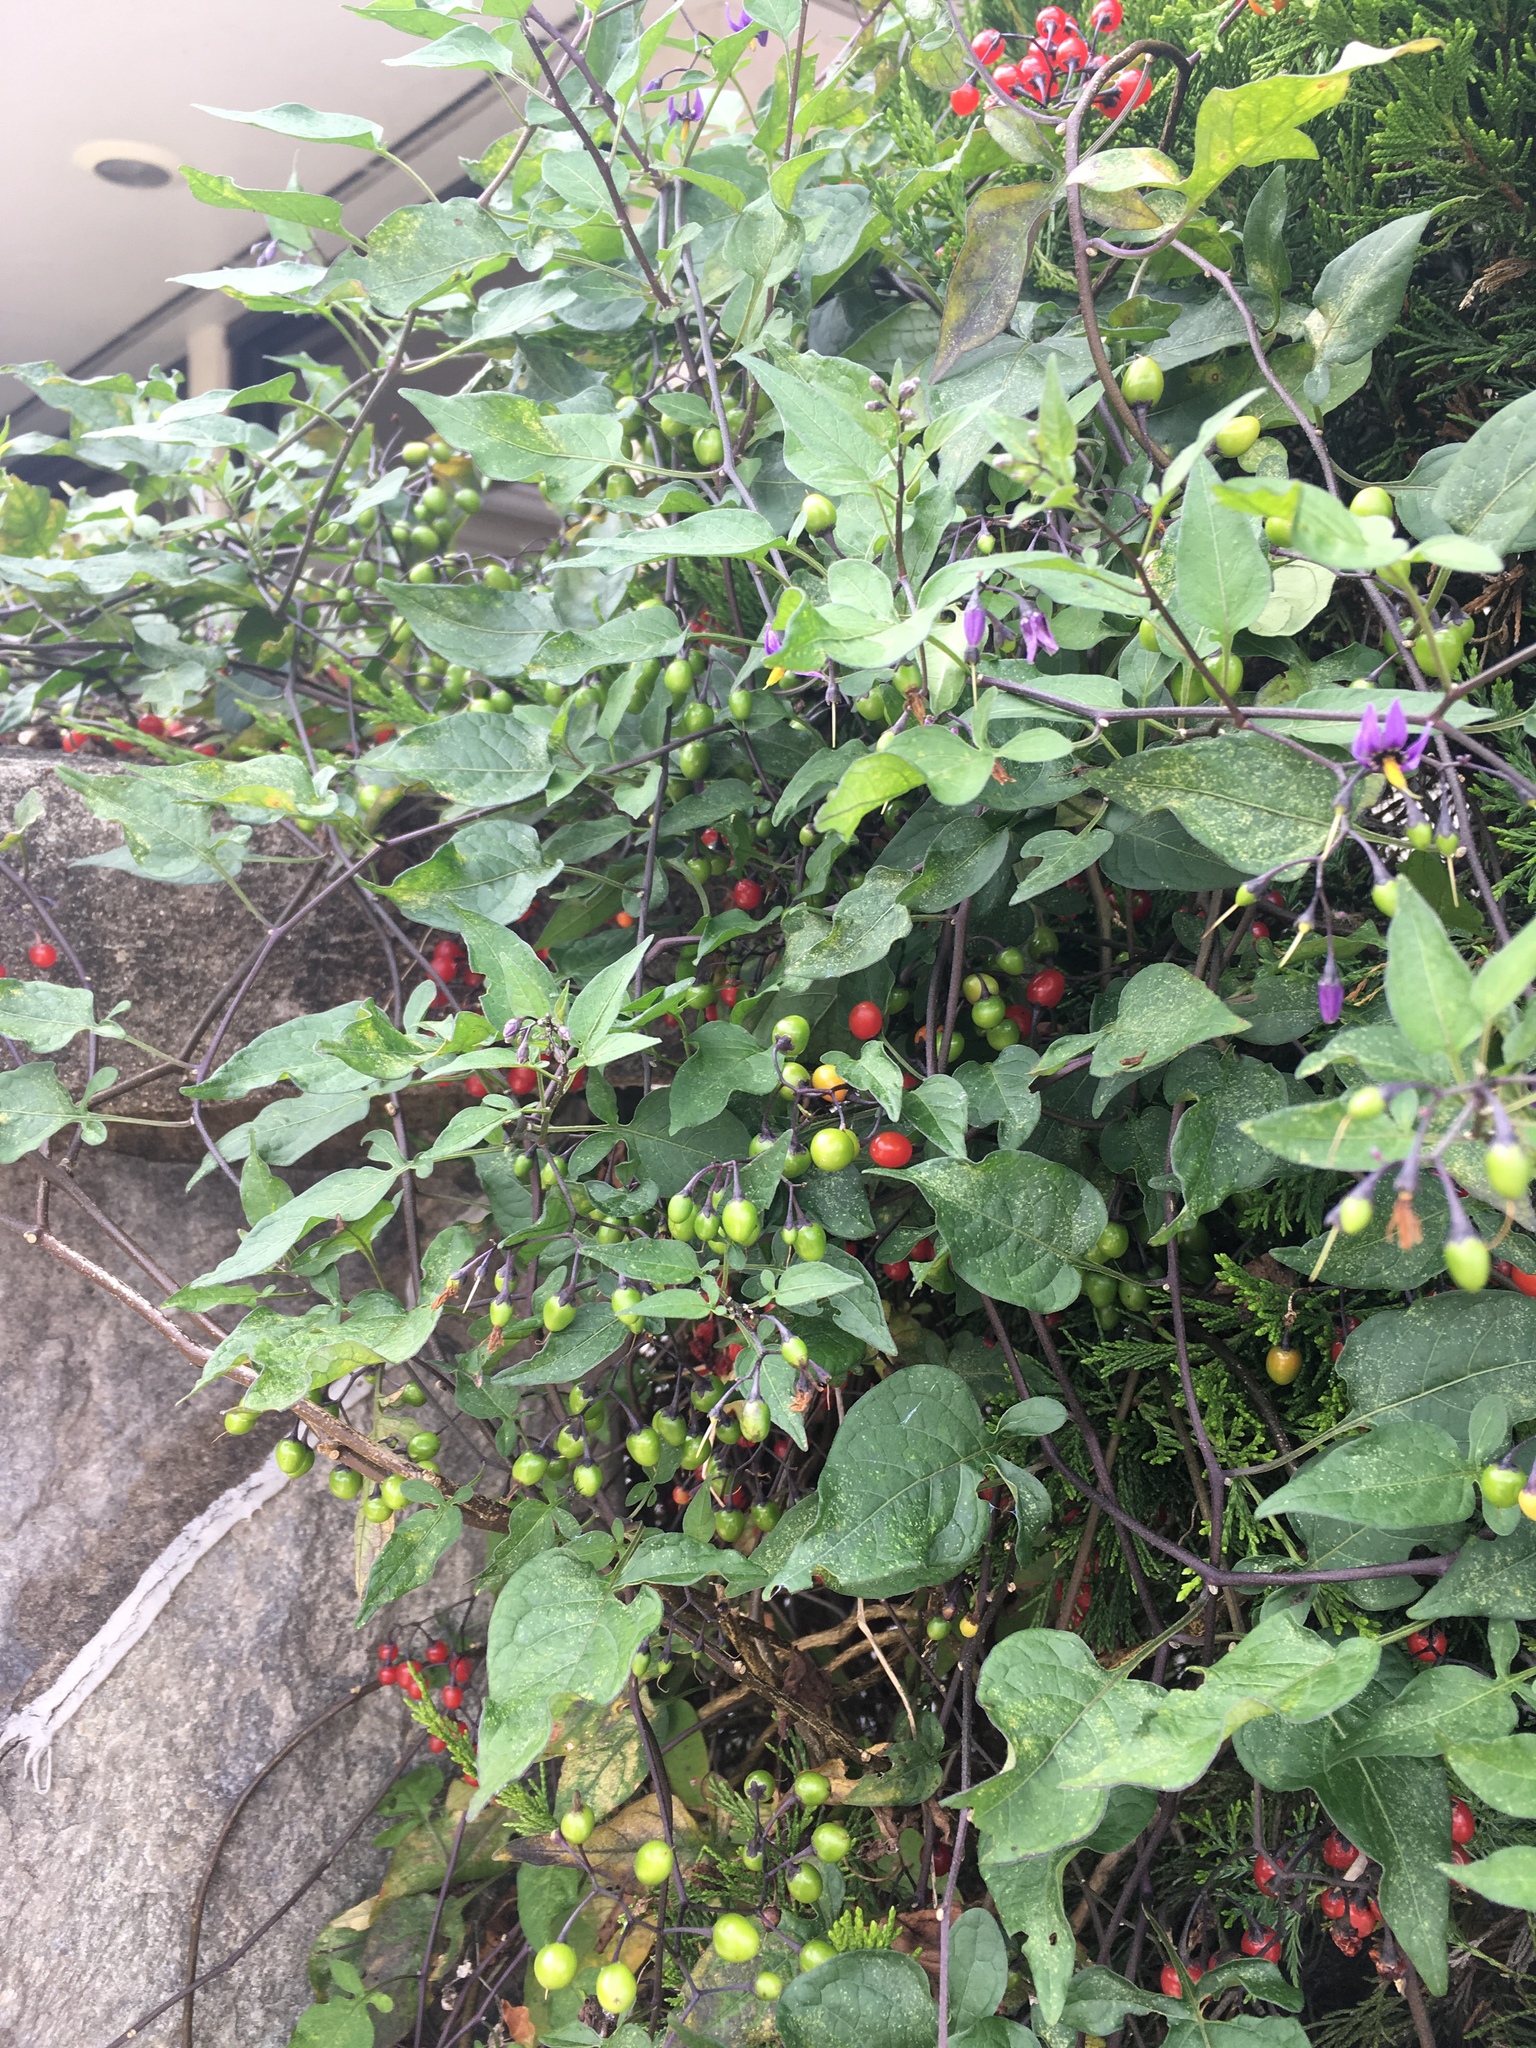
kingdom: Plantae
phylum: Tracheophyta
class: Magnoliopsida
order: Solanales
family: Solanaceae
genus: Solanum
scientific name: Solanum dulcamara
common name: Climbing nightshade
